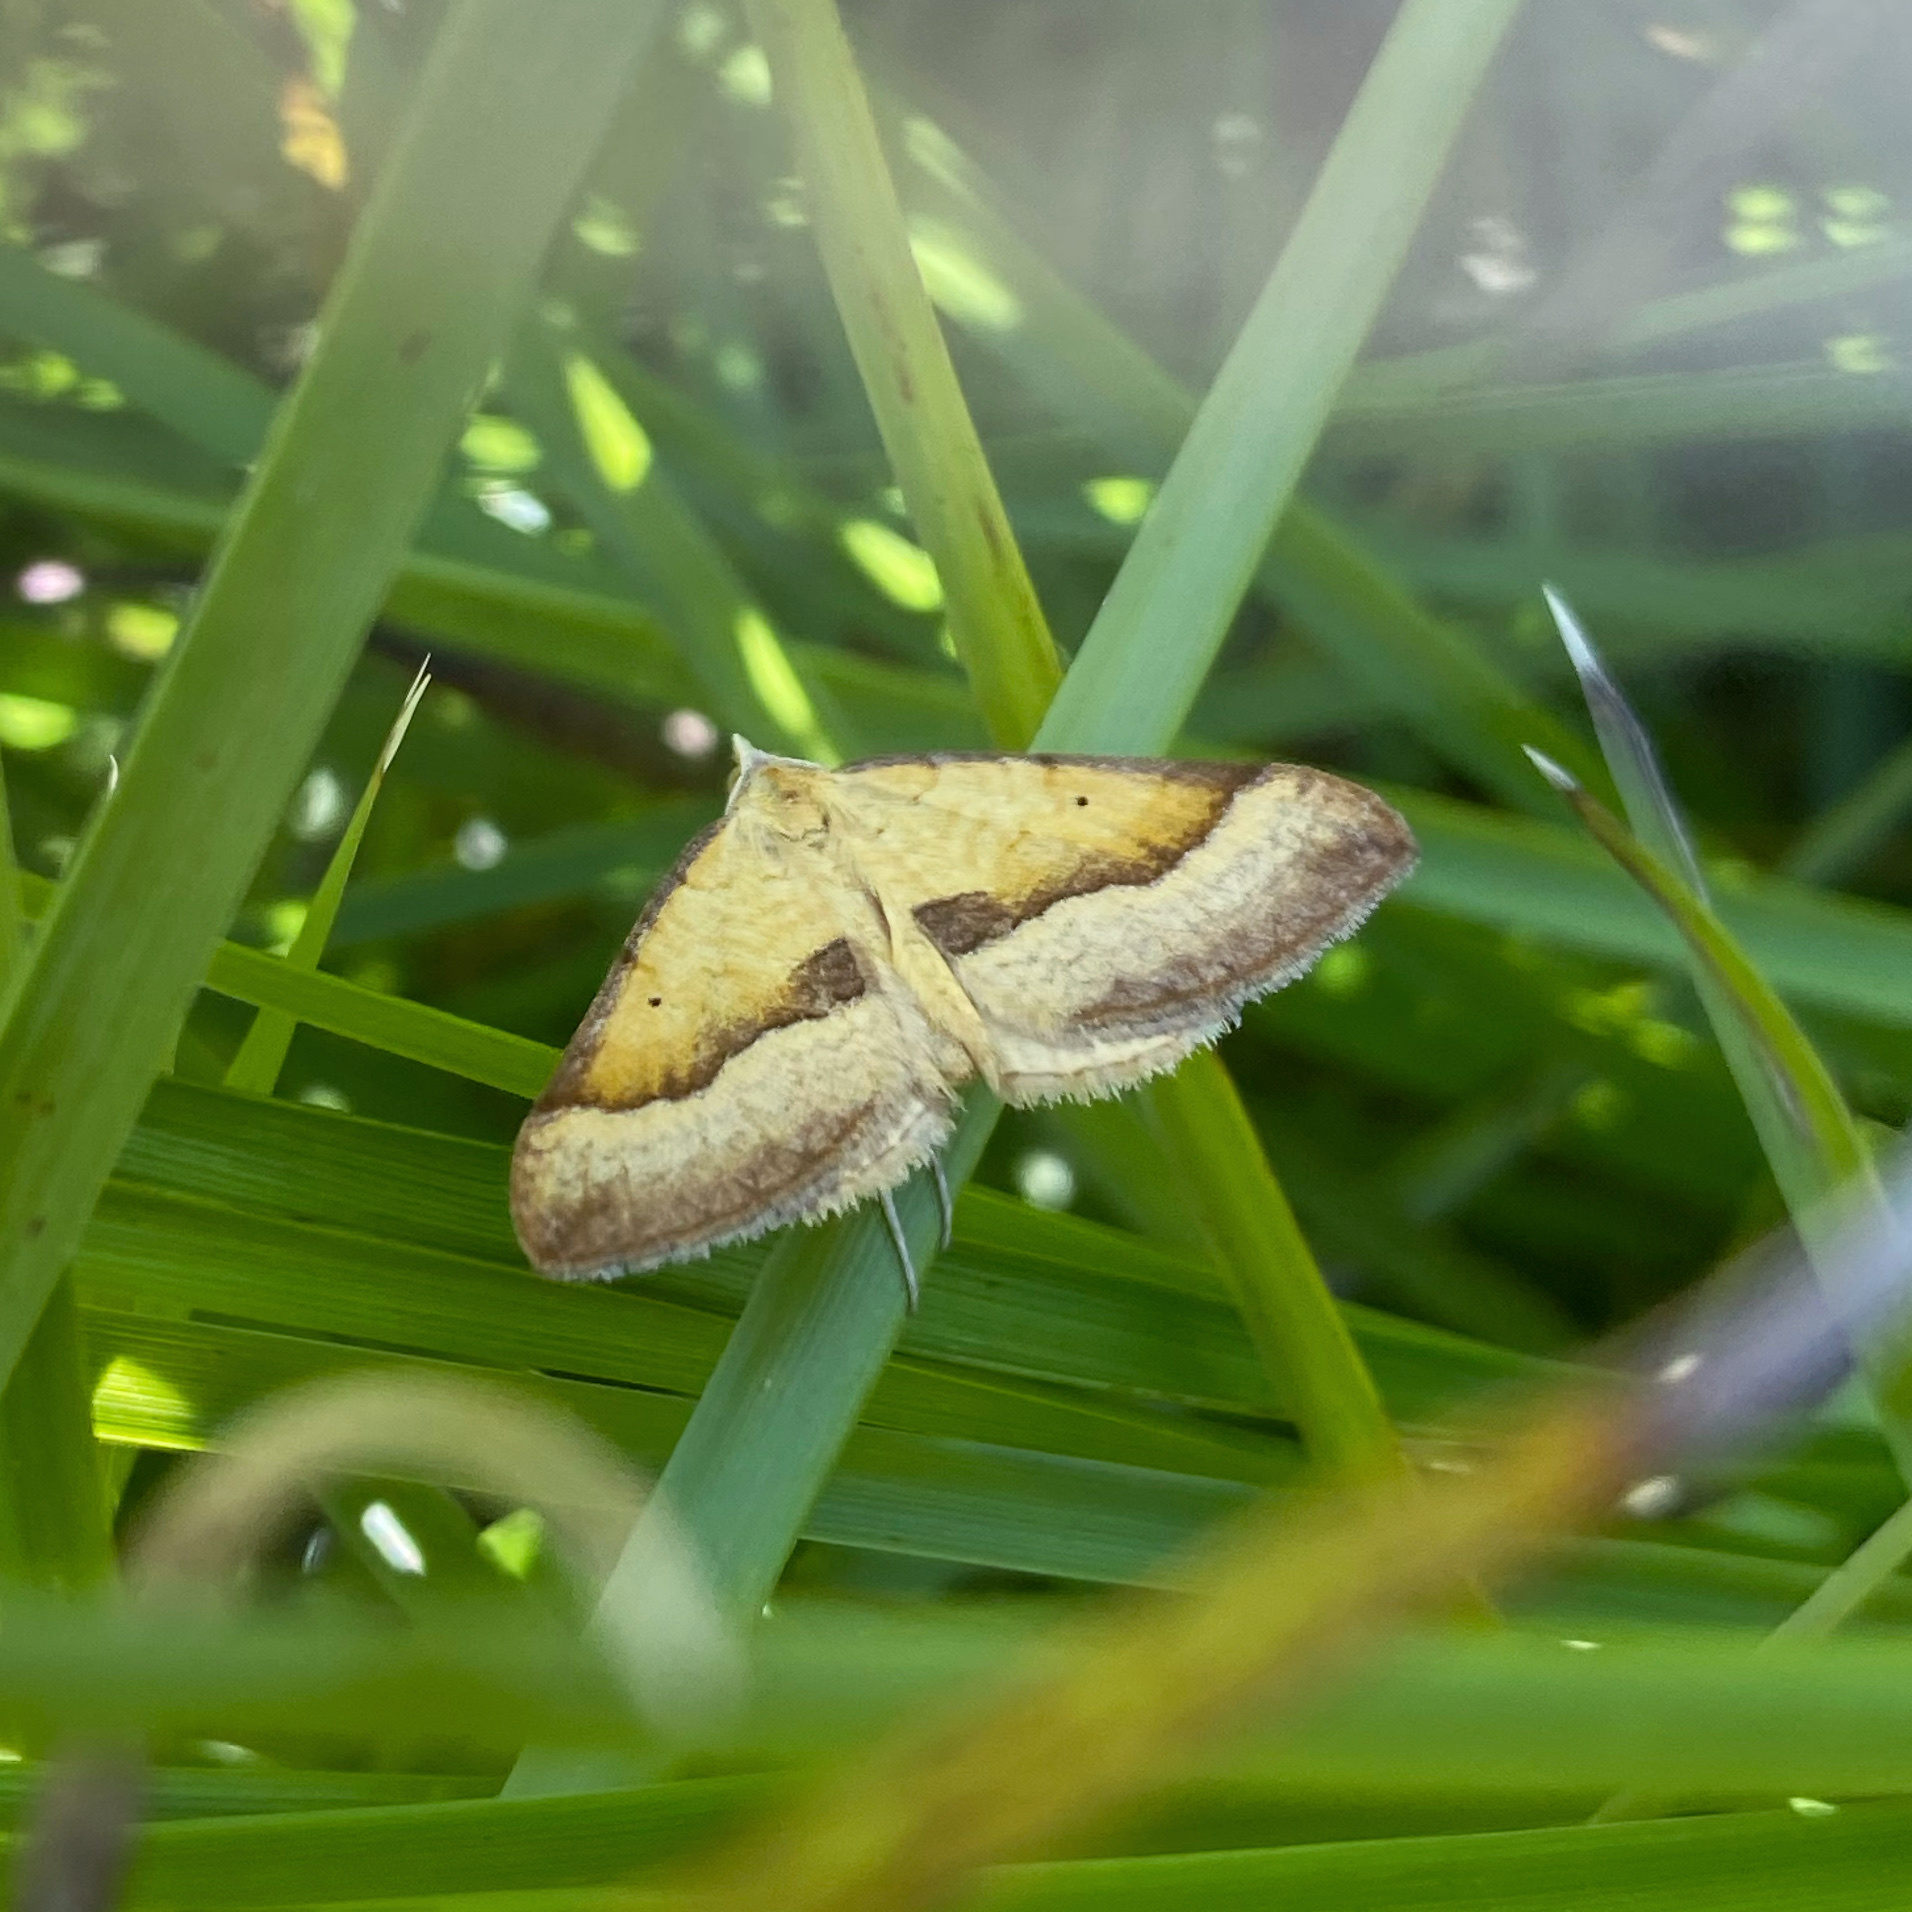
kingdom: Animalia
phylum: Arthropoda
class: Insecta
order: Lepidoptera
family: Geometridae
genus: Anachloris
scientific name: Anachloris subochraria
